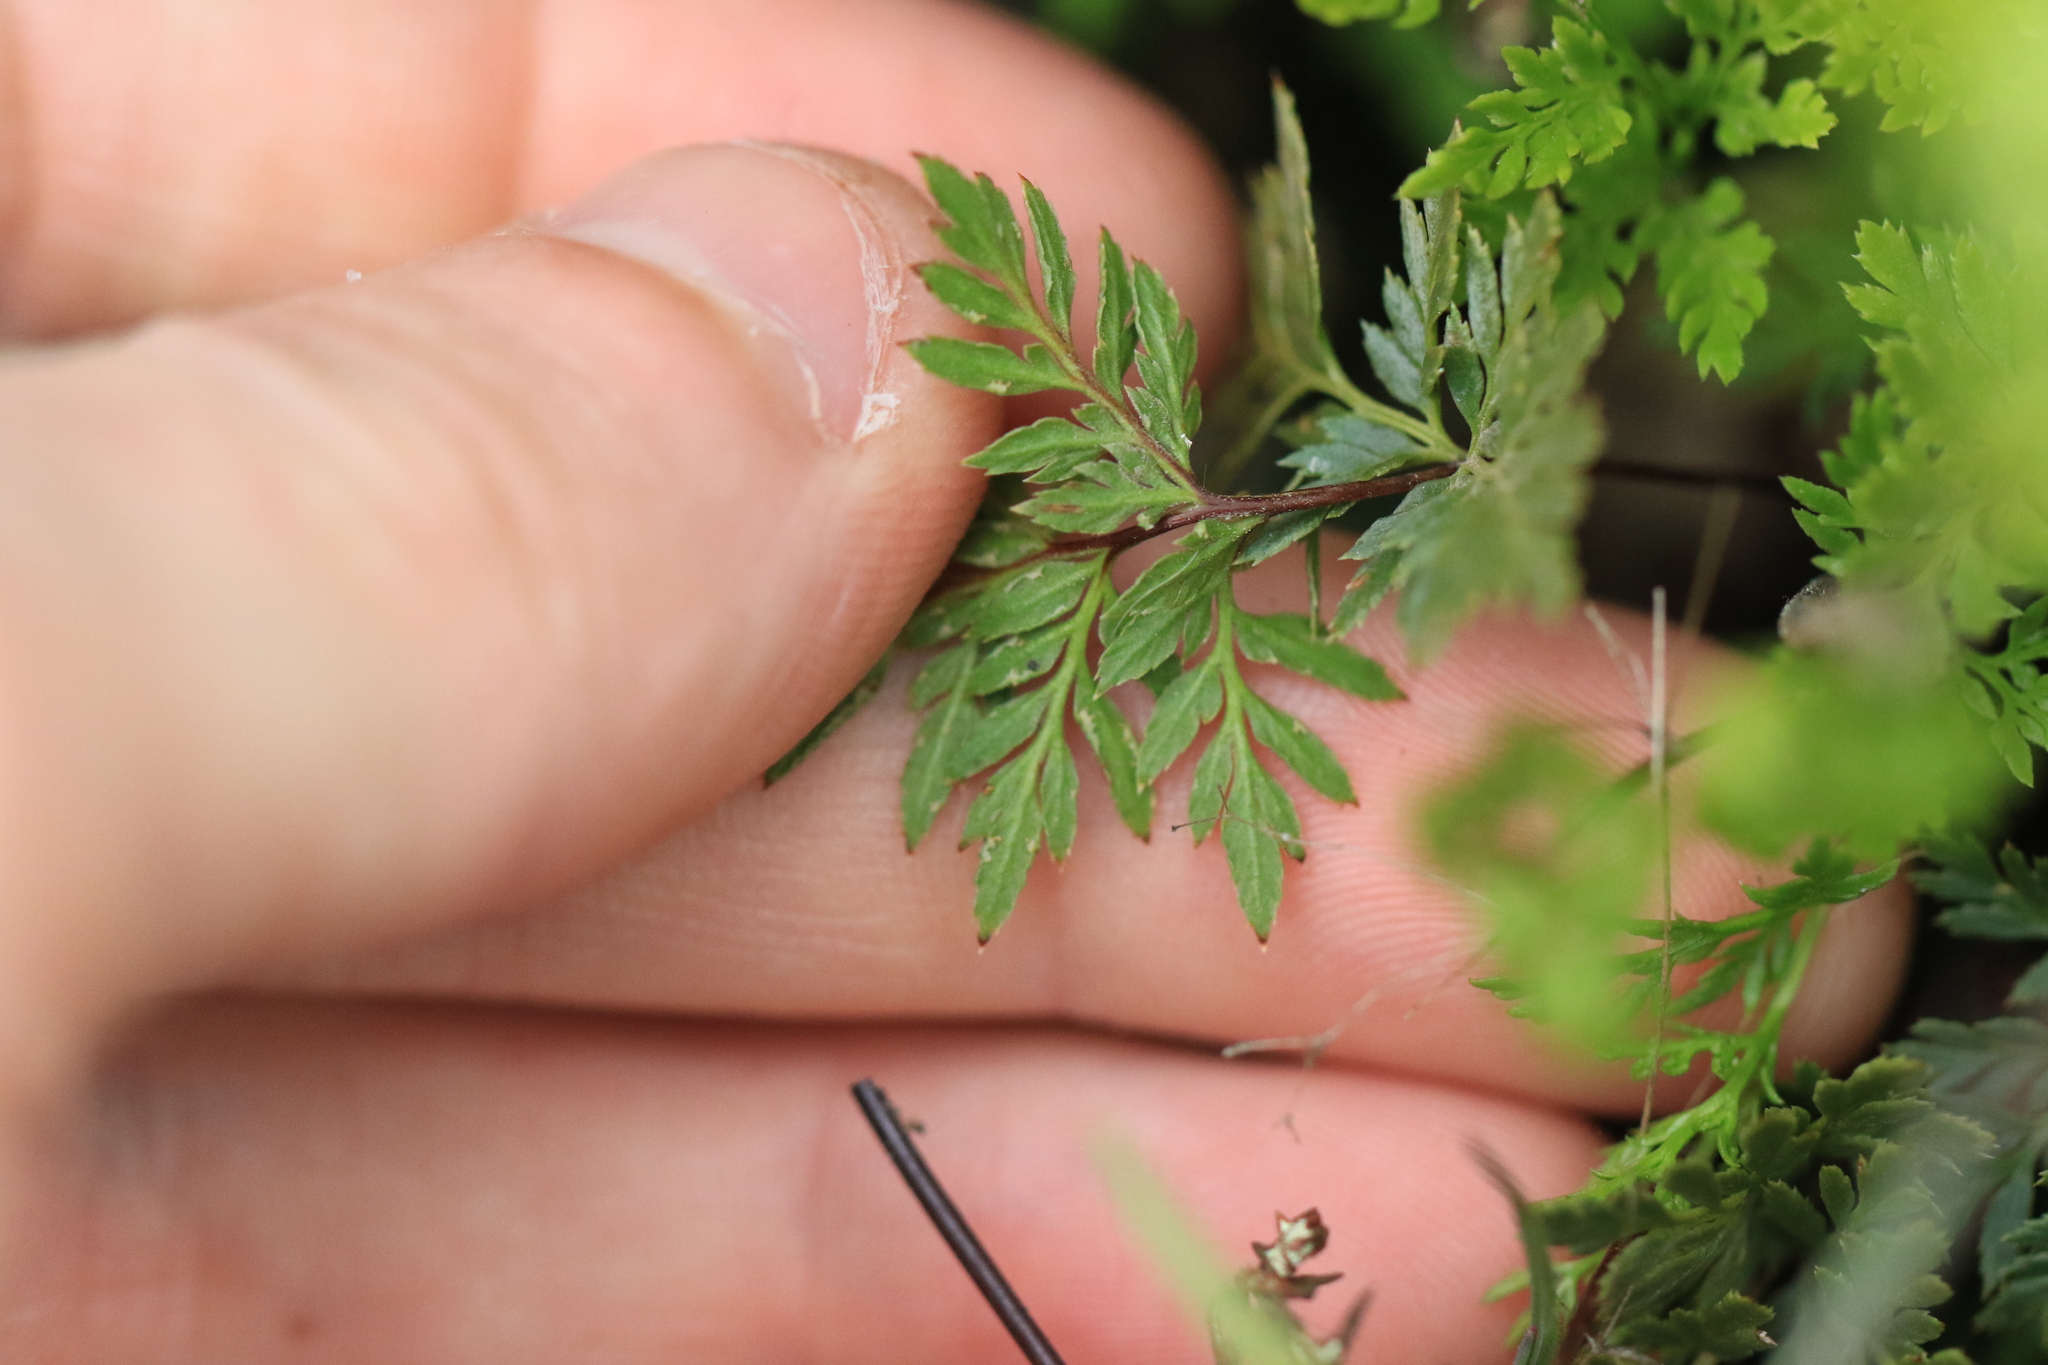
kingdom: Plantae
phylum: Tracheophyta
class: Polypodiopsida
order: Polypodiales
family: Pteridaceae
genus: Aspidotis
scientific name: Aspidotis densa
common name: Indian's dream
